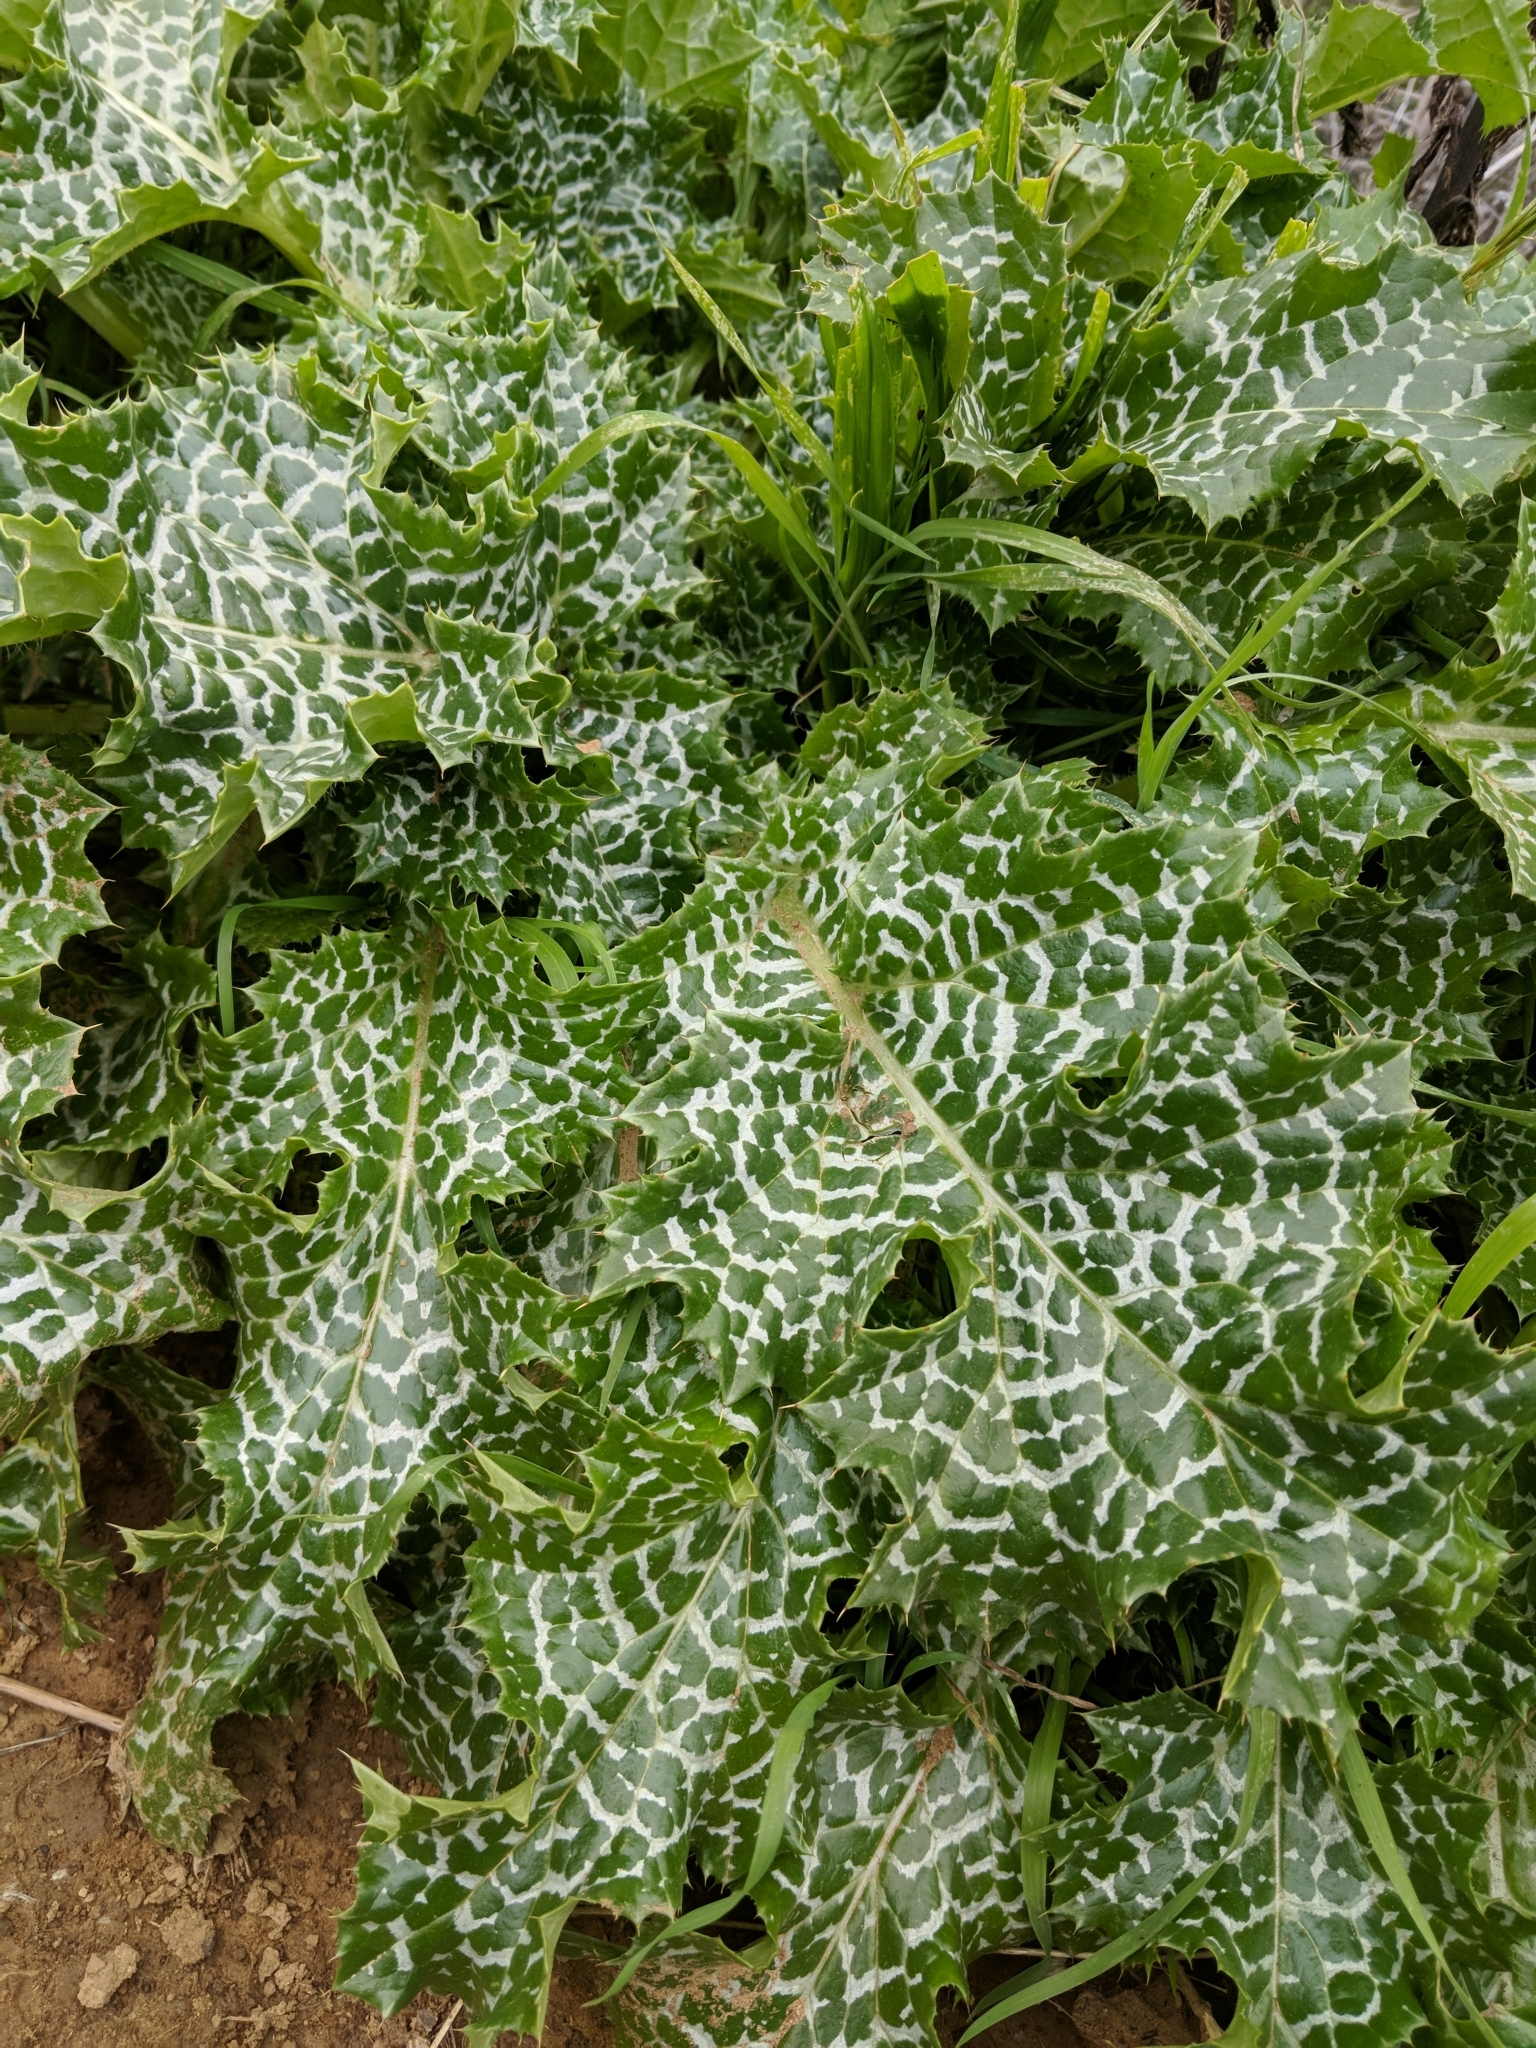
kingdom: Plantae
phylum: Tracheophyta
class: Magnoliopsida
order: Asterales
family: Asteraceae
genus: Silybum
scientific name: Silybum marianum
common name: Milk thistle
